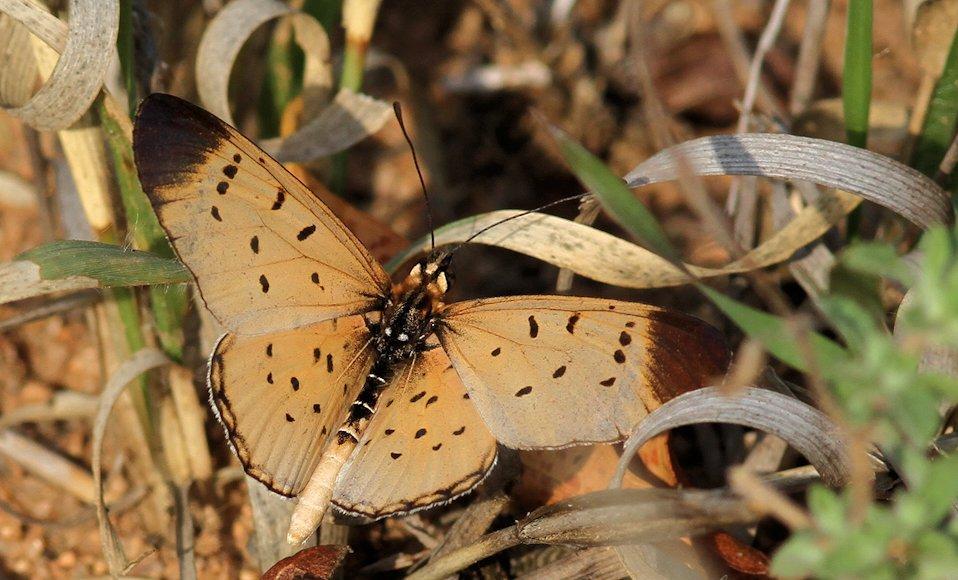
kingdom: Animalia
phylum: Arthropoda
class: Insecta
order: Lepidoptera
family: Nymphalidae
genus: Stephenia
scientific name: Stephenia
